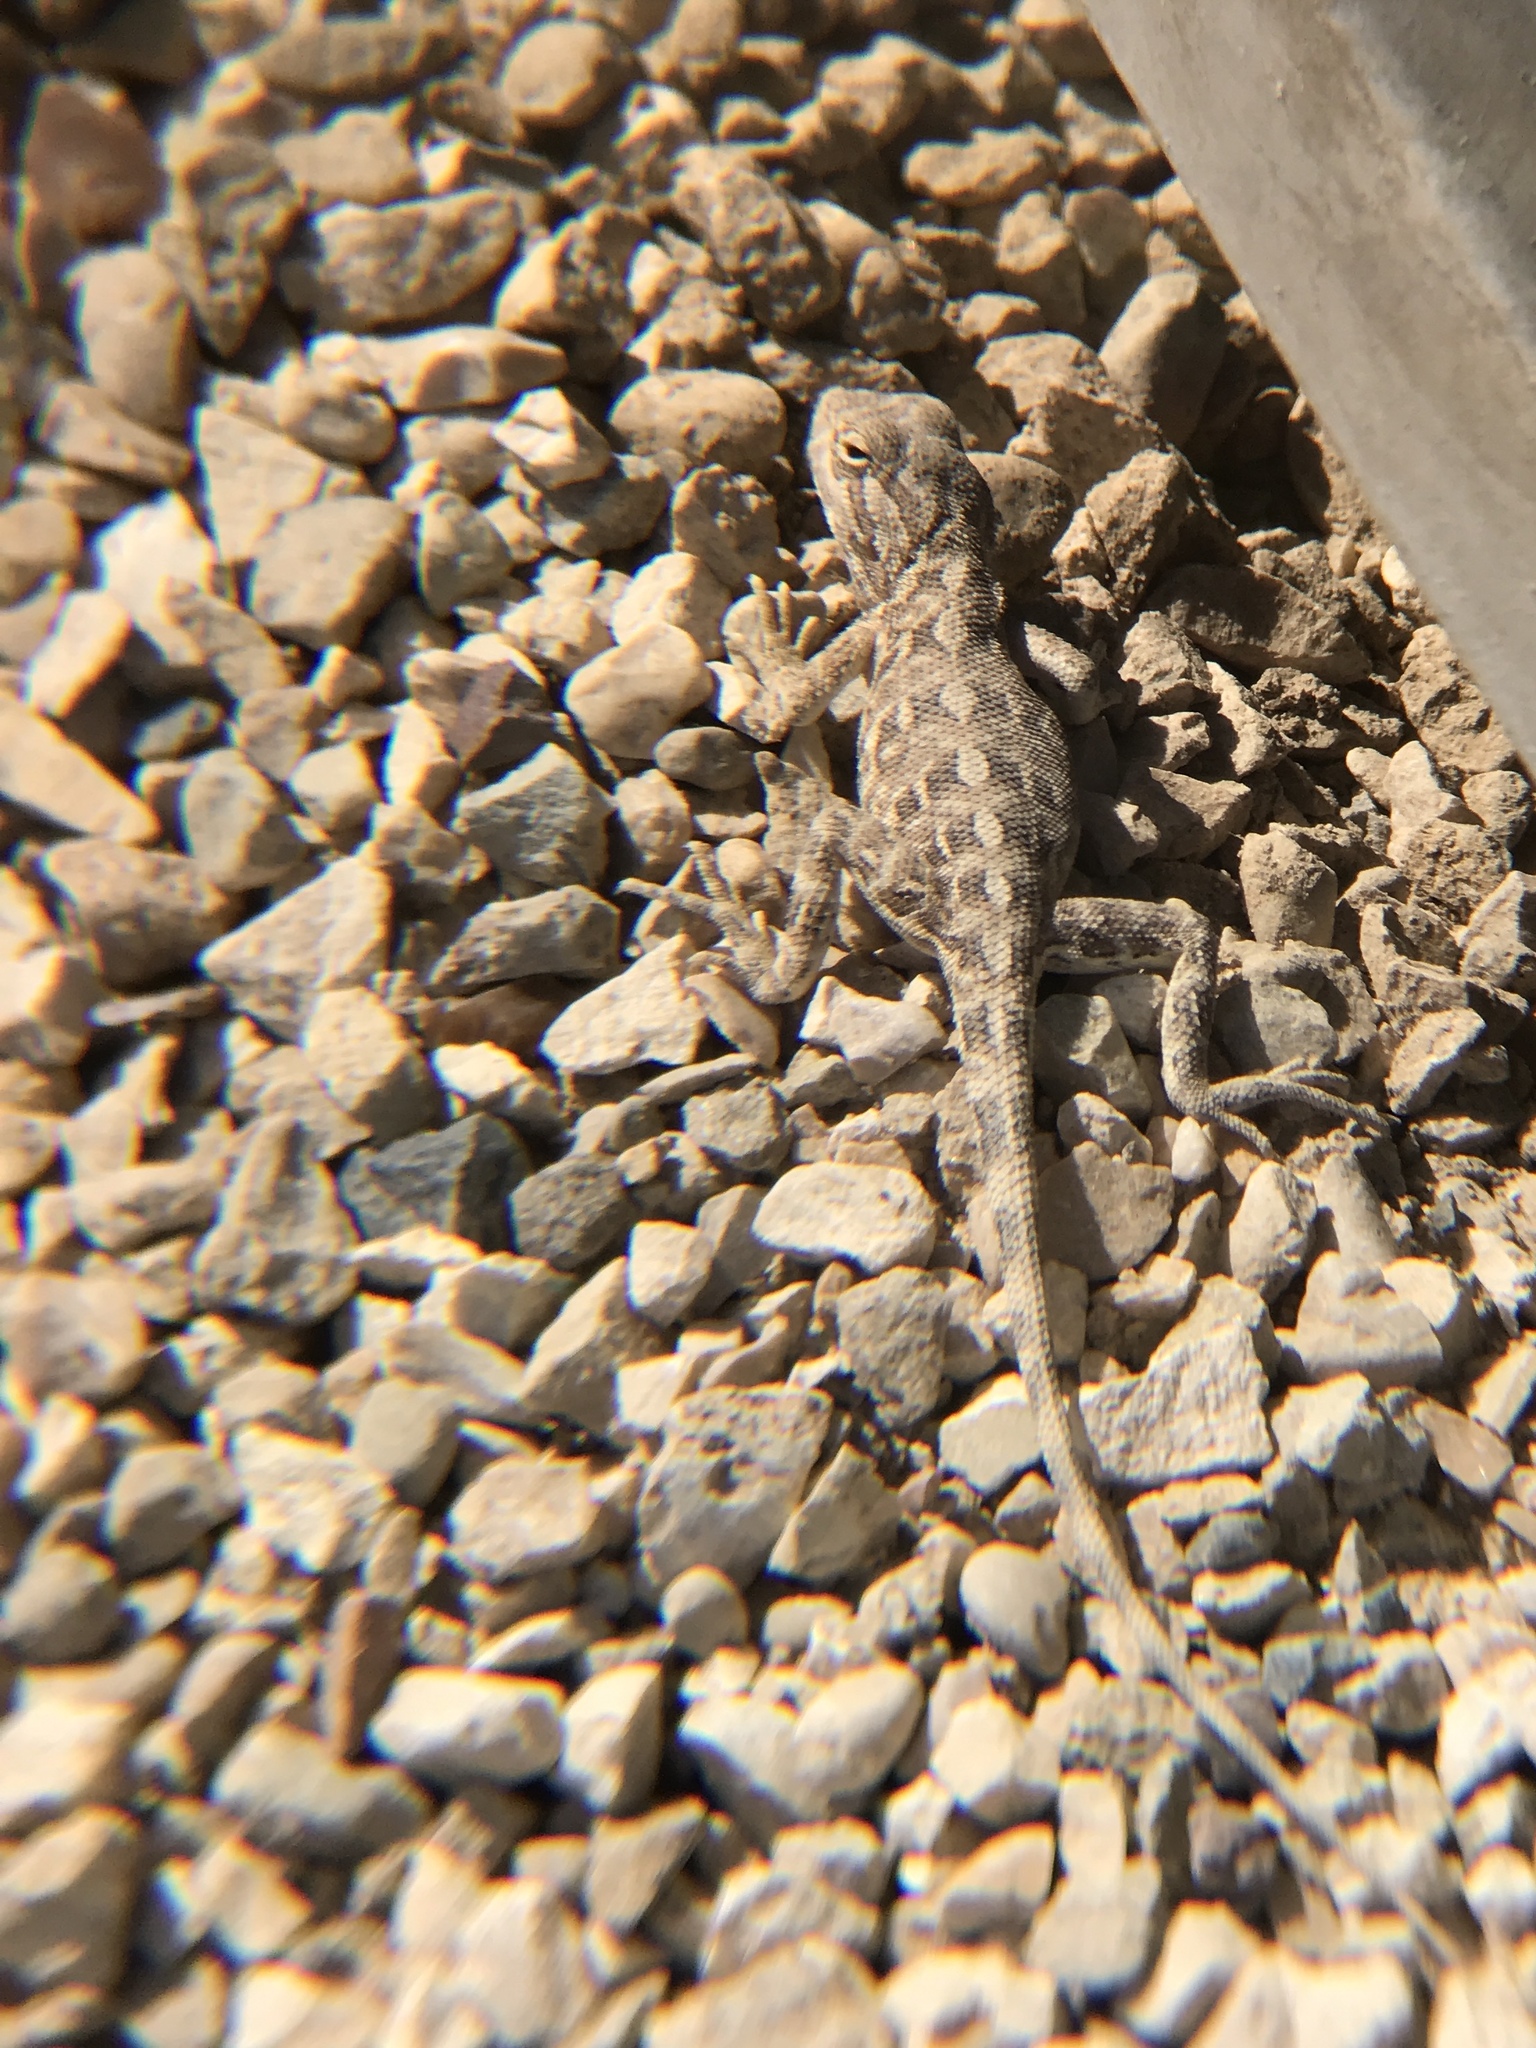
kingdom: Animalia
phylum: Chordata
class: Squamata
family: Agamidae
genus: Trapelus
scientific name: Trapelus agilis
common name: Brilliant ground agama
